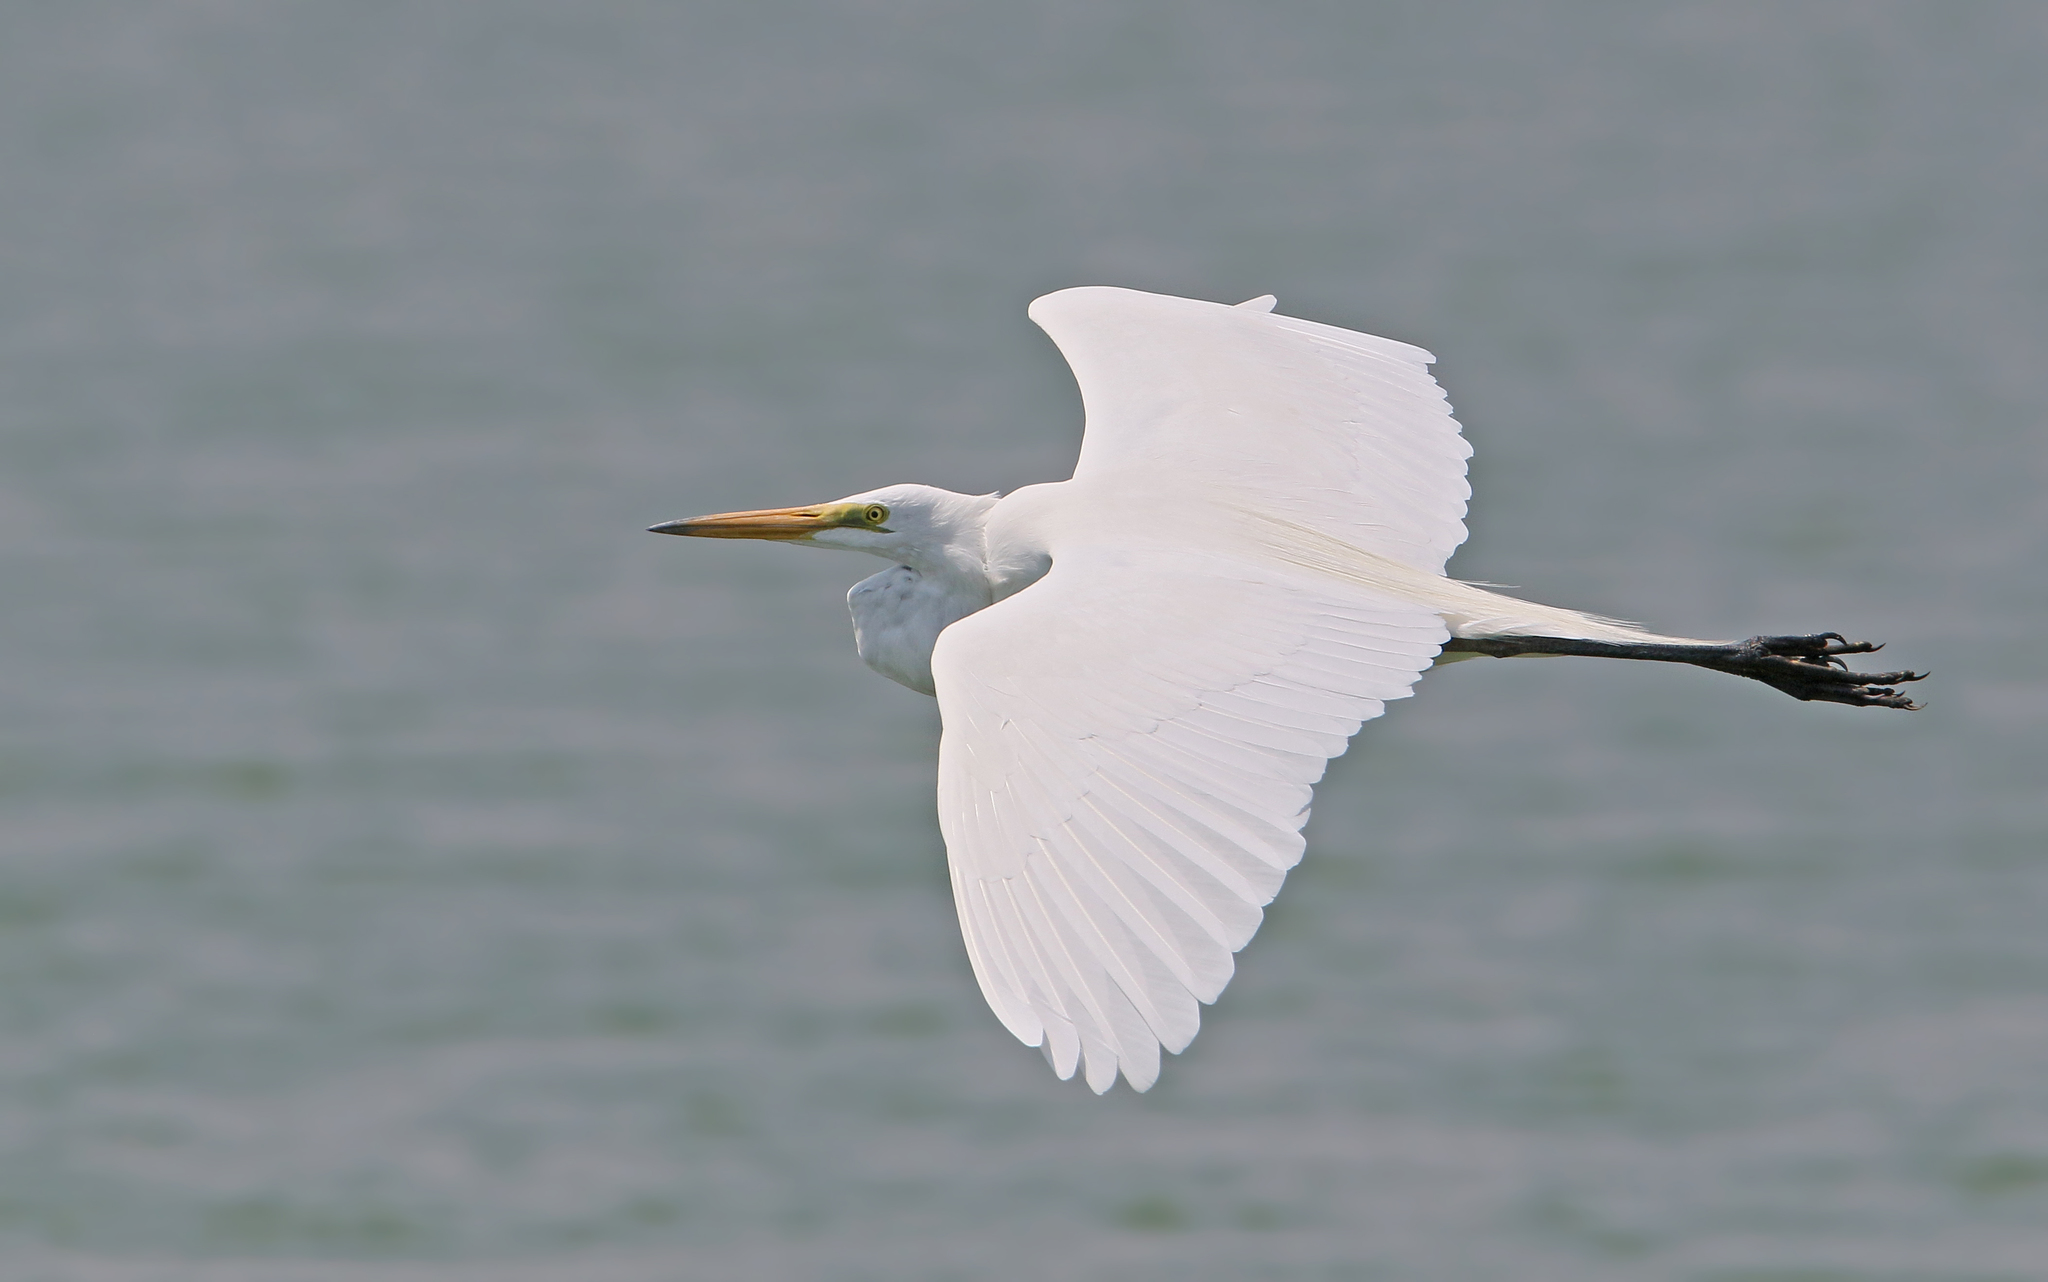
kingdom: Animalia
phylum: Chordata
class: Aves
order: Pelecaniformes
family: Ardeidae
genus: Ardea
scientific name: Ardea alba
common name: Great egret
